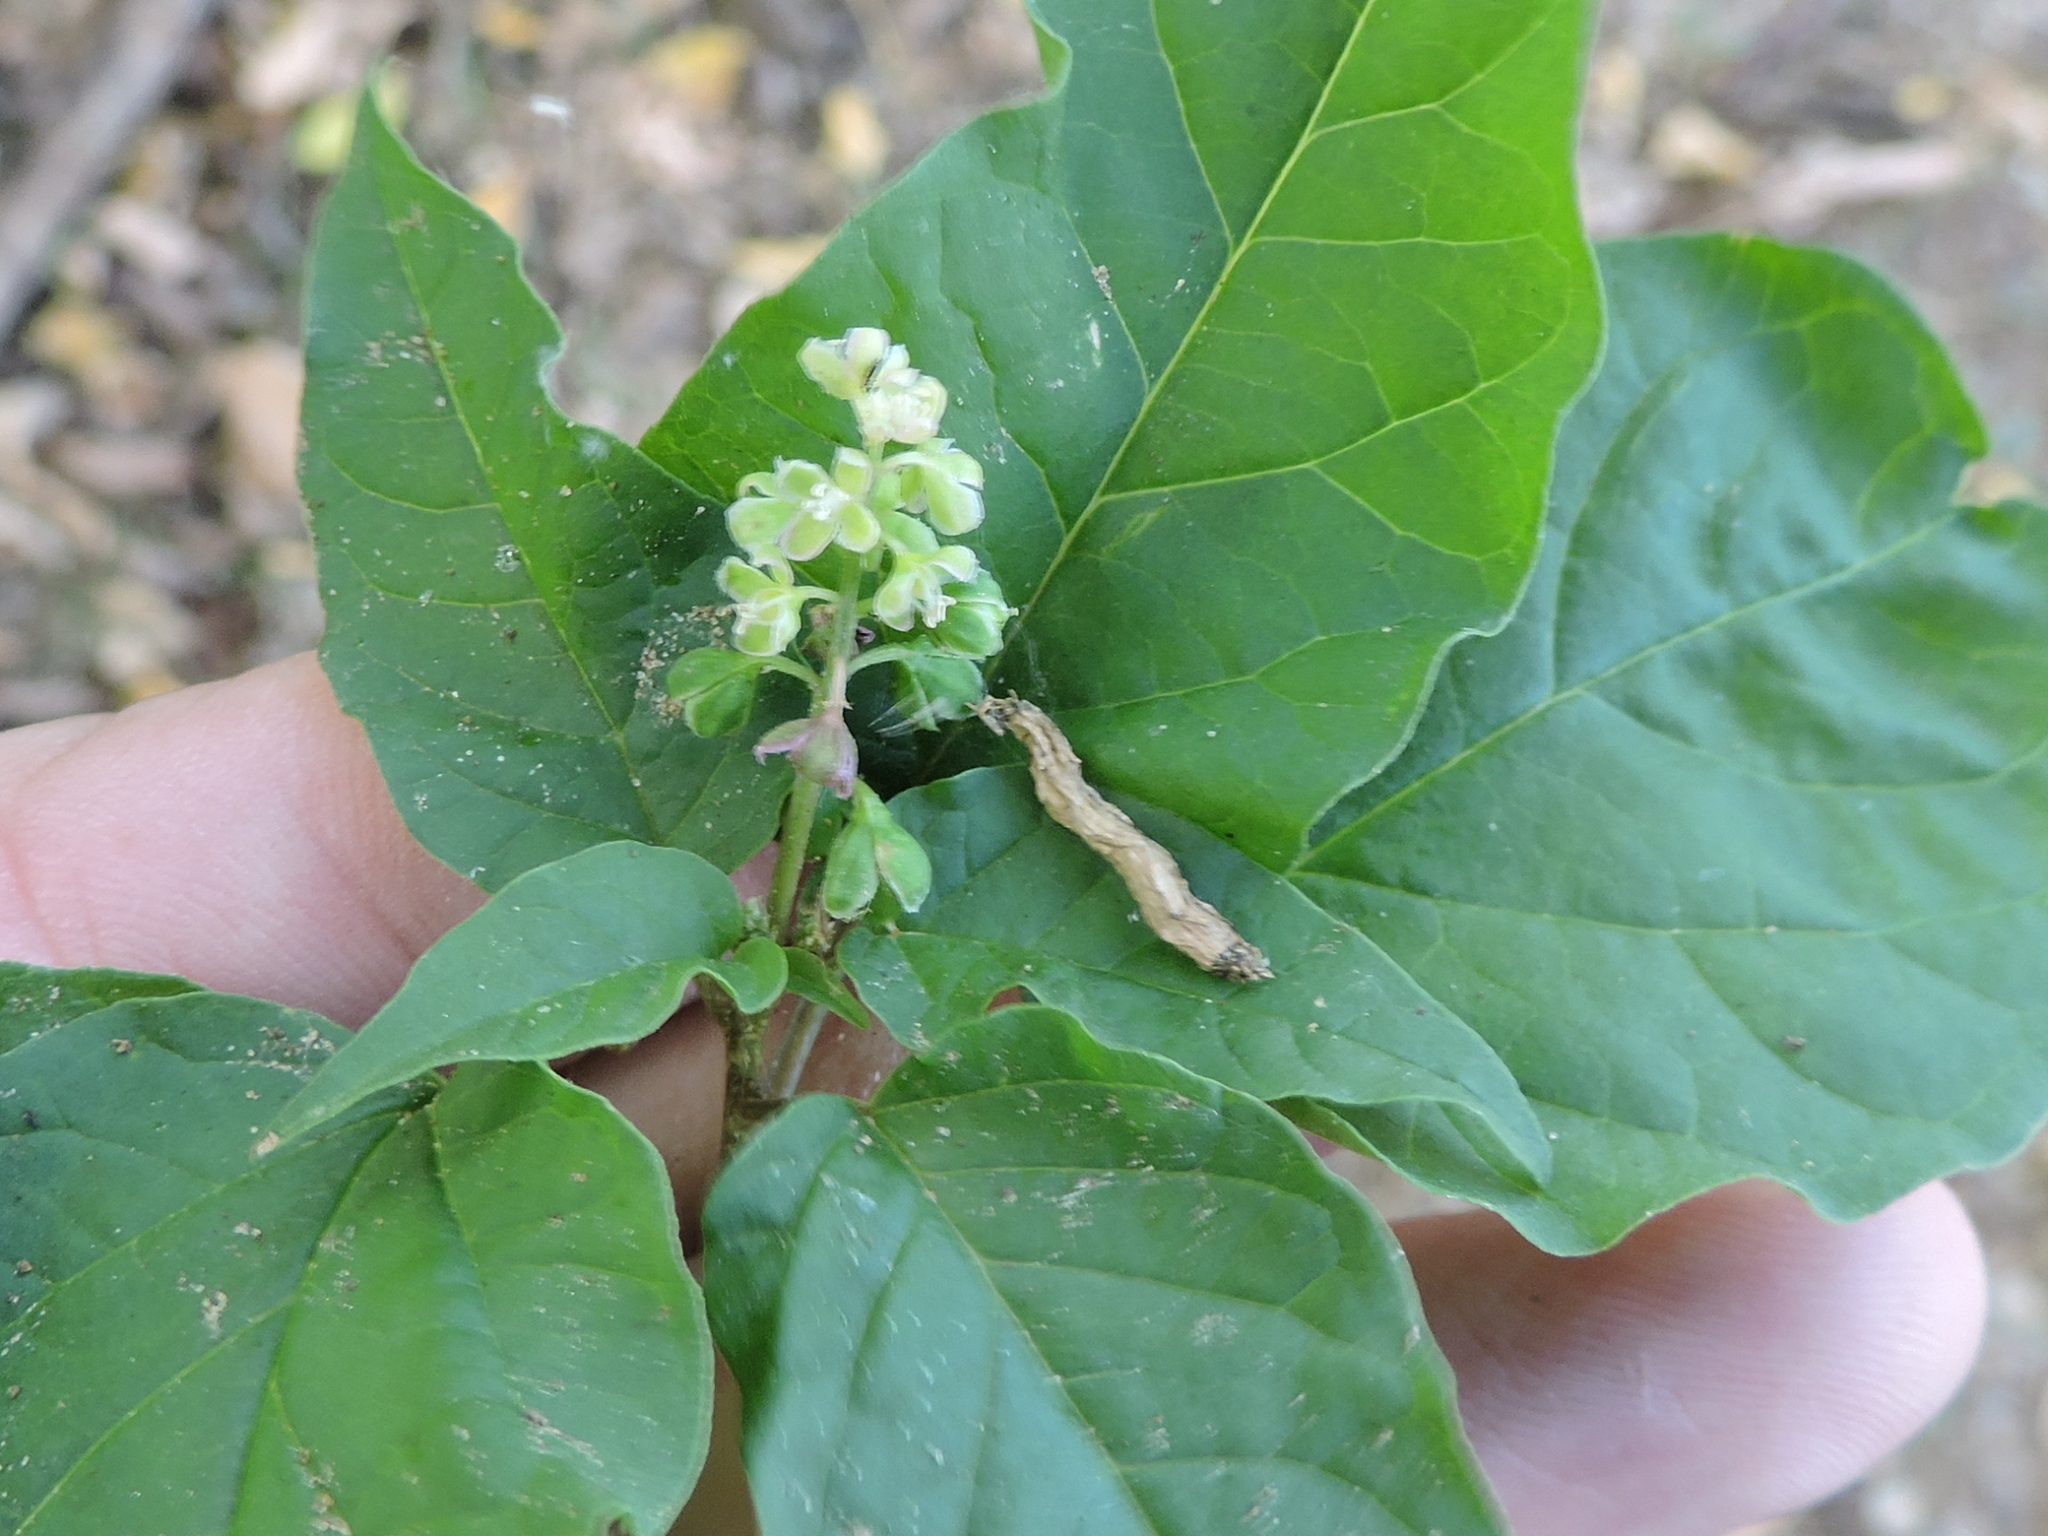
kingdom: Plantae
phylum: Tracheophyta
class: Magnoliopsida
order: Caryophyllales
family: Phytolaccaceae
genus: Rivina
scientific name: Rivina humilis
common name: Rougeplant
